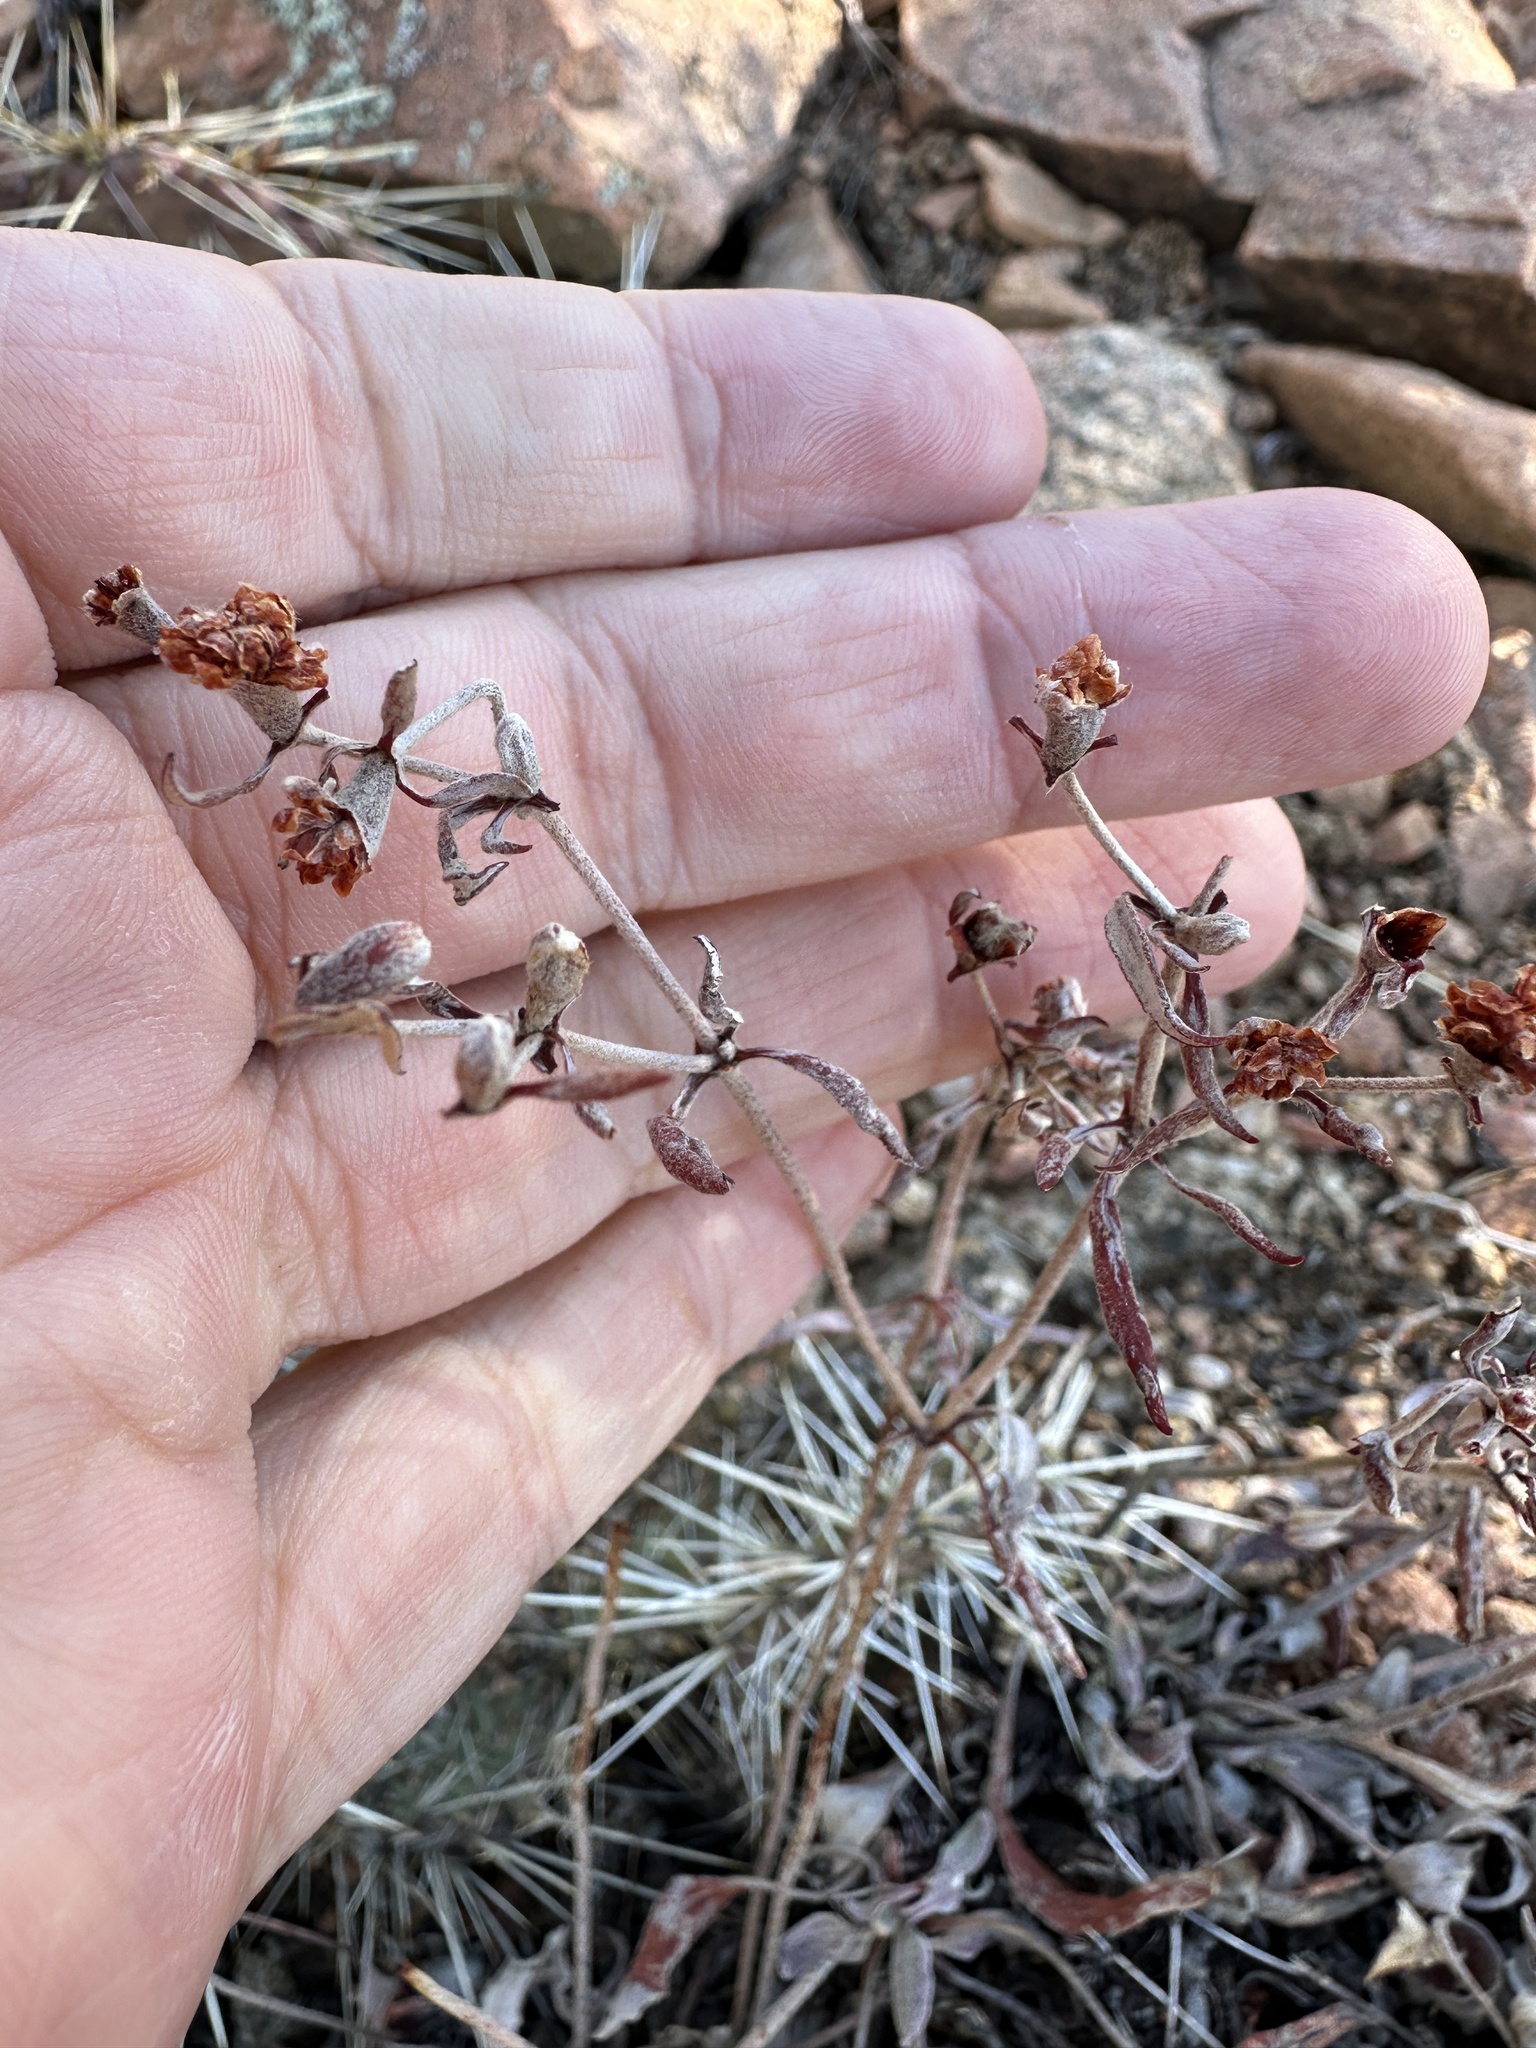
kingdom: Plantae
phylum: Tracheophyta
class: Magnoliopsida
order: Caryophyllales
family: Polygonaceae
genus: Eriogonum
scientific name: Eriogonum jamesii
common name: Antelope-sage
